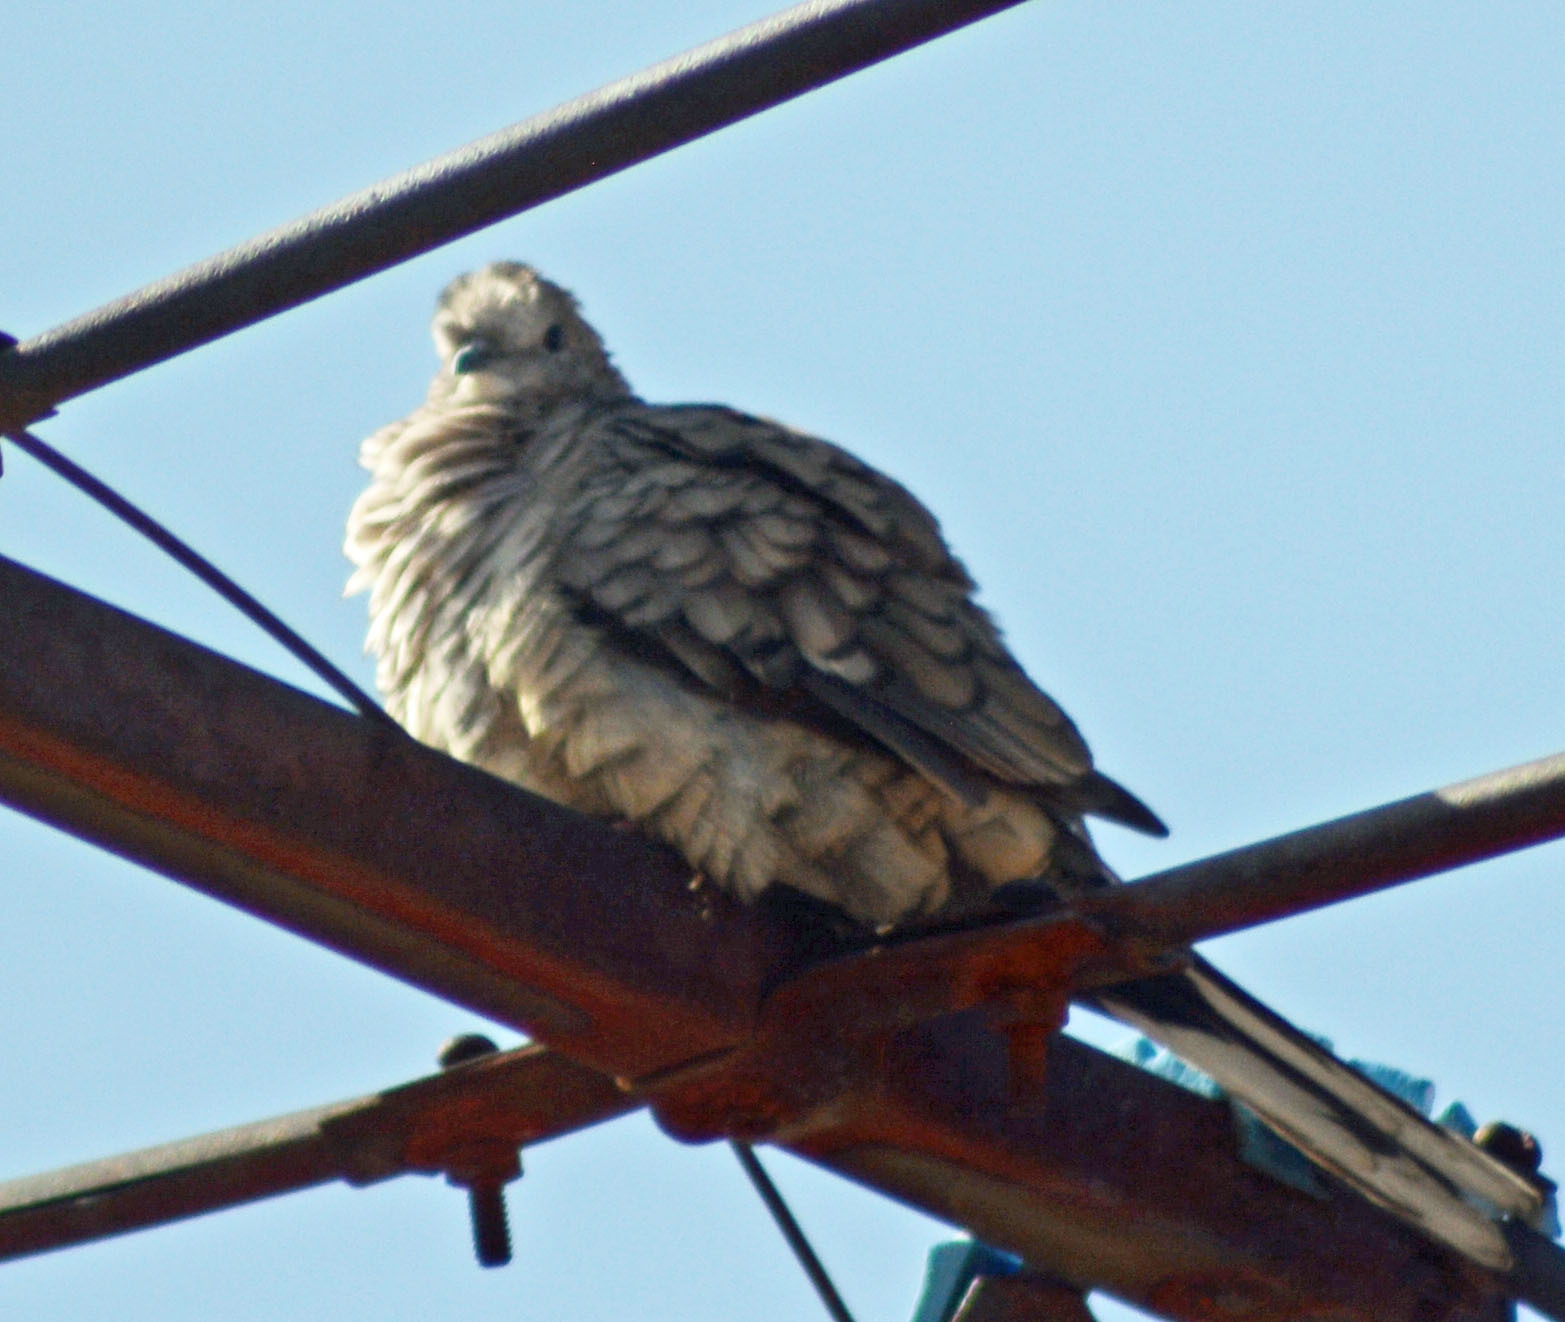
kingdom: Animalia
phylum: Chordata
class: Aves
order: Columbiformes
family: Columbidae
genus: Columbina
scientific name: Columbina inca
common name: Inca dove
